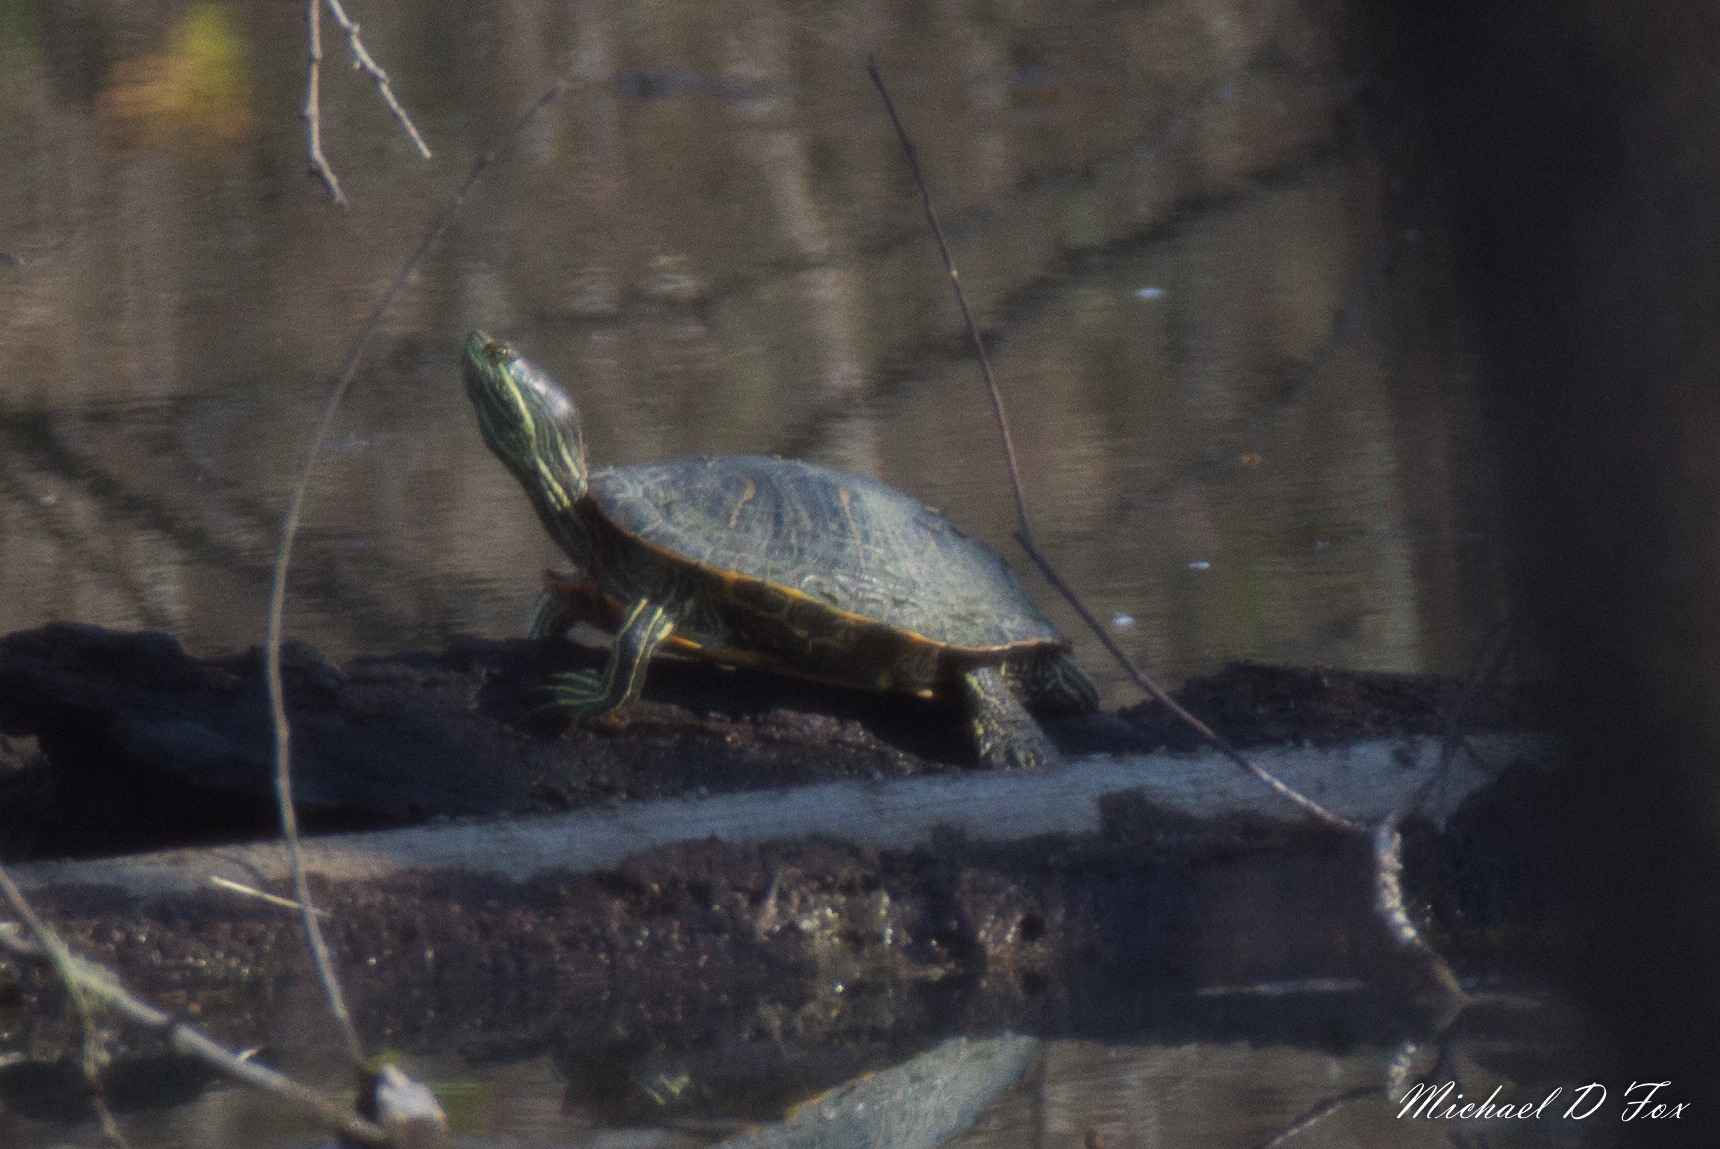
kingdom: Animalia
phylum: Chordata
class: Testudines
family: Emydidae
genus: Trachemys
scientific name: Trachemys scripta
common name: Slider
